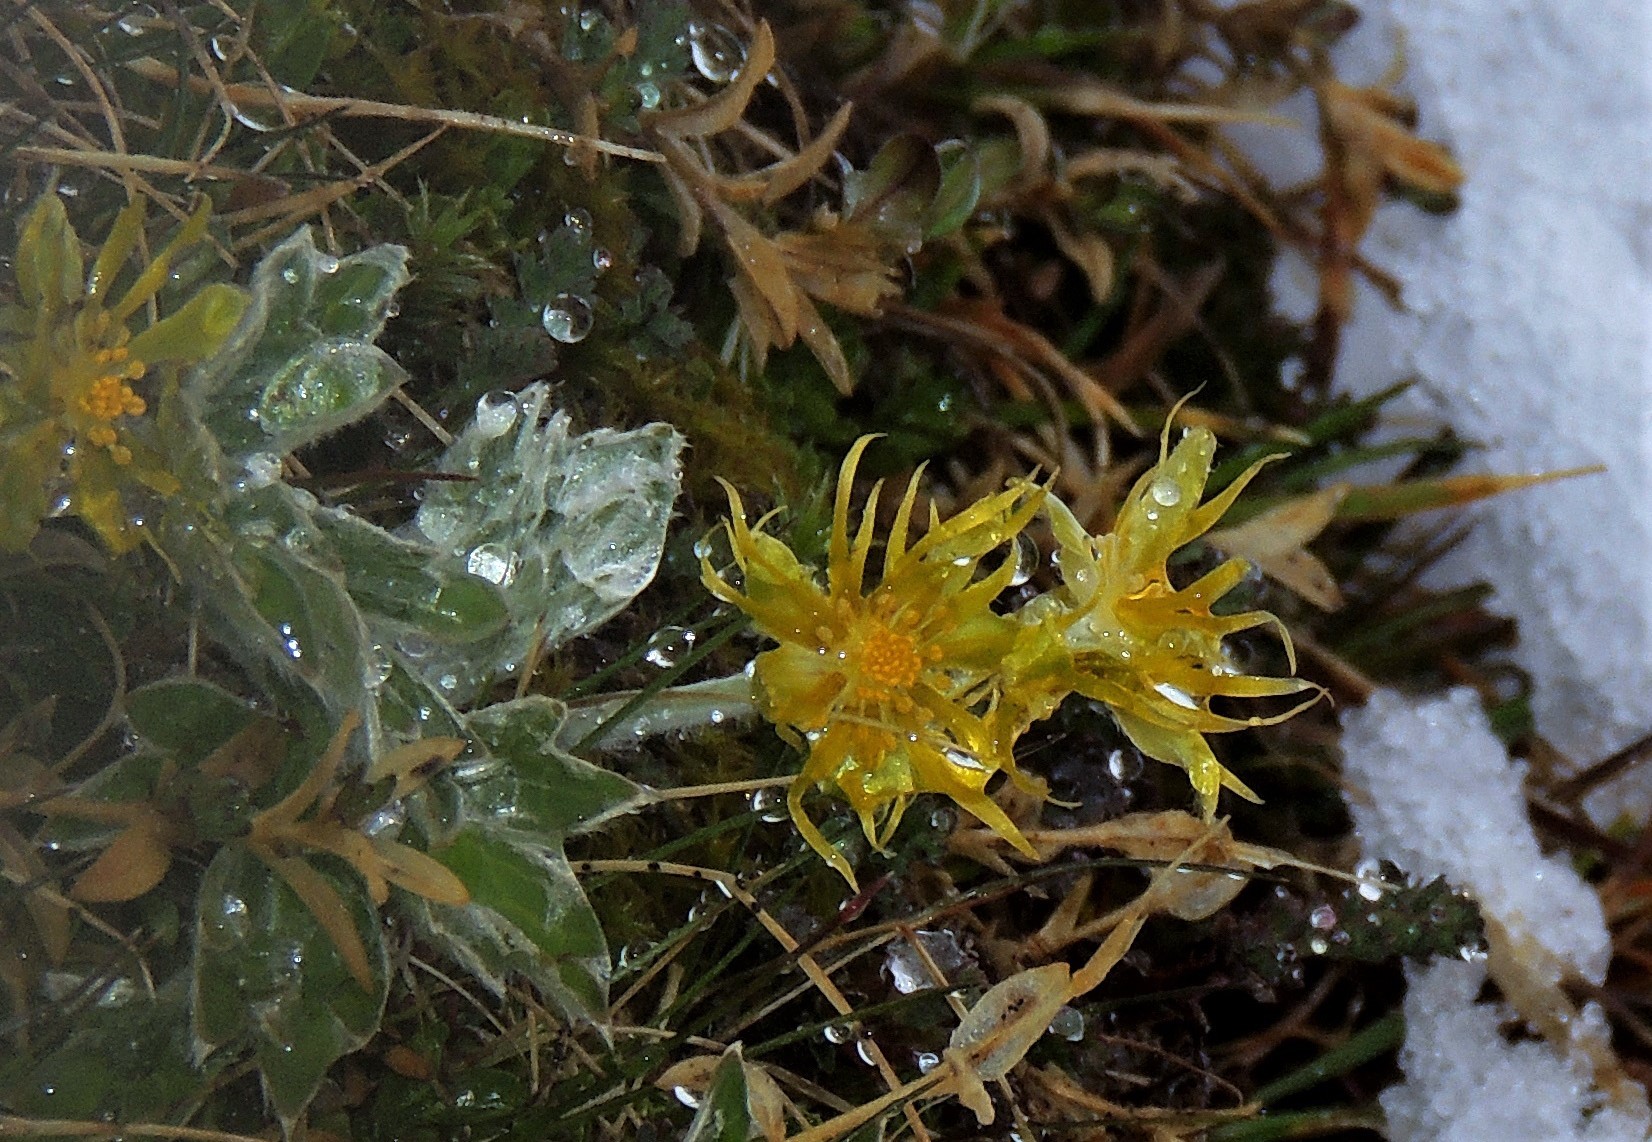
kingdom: Plantae
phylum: Tracheophyta
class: Magnoliopsida
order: Ranunculales
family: Ranunculaceae
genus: Hamadryas
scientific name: Hamadryas magellanica
